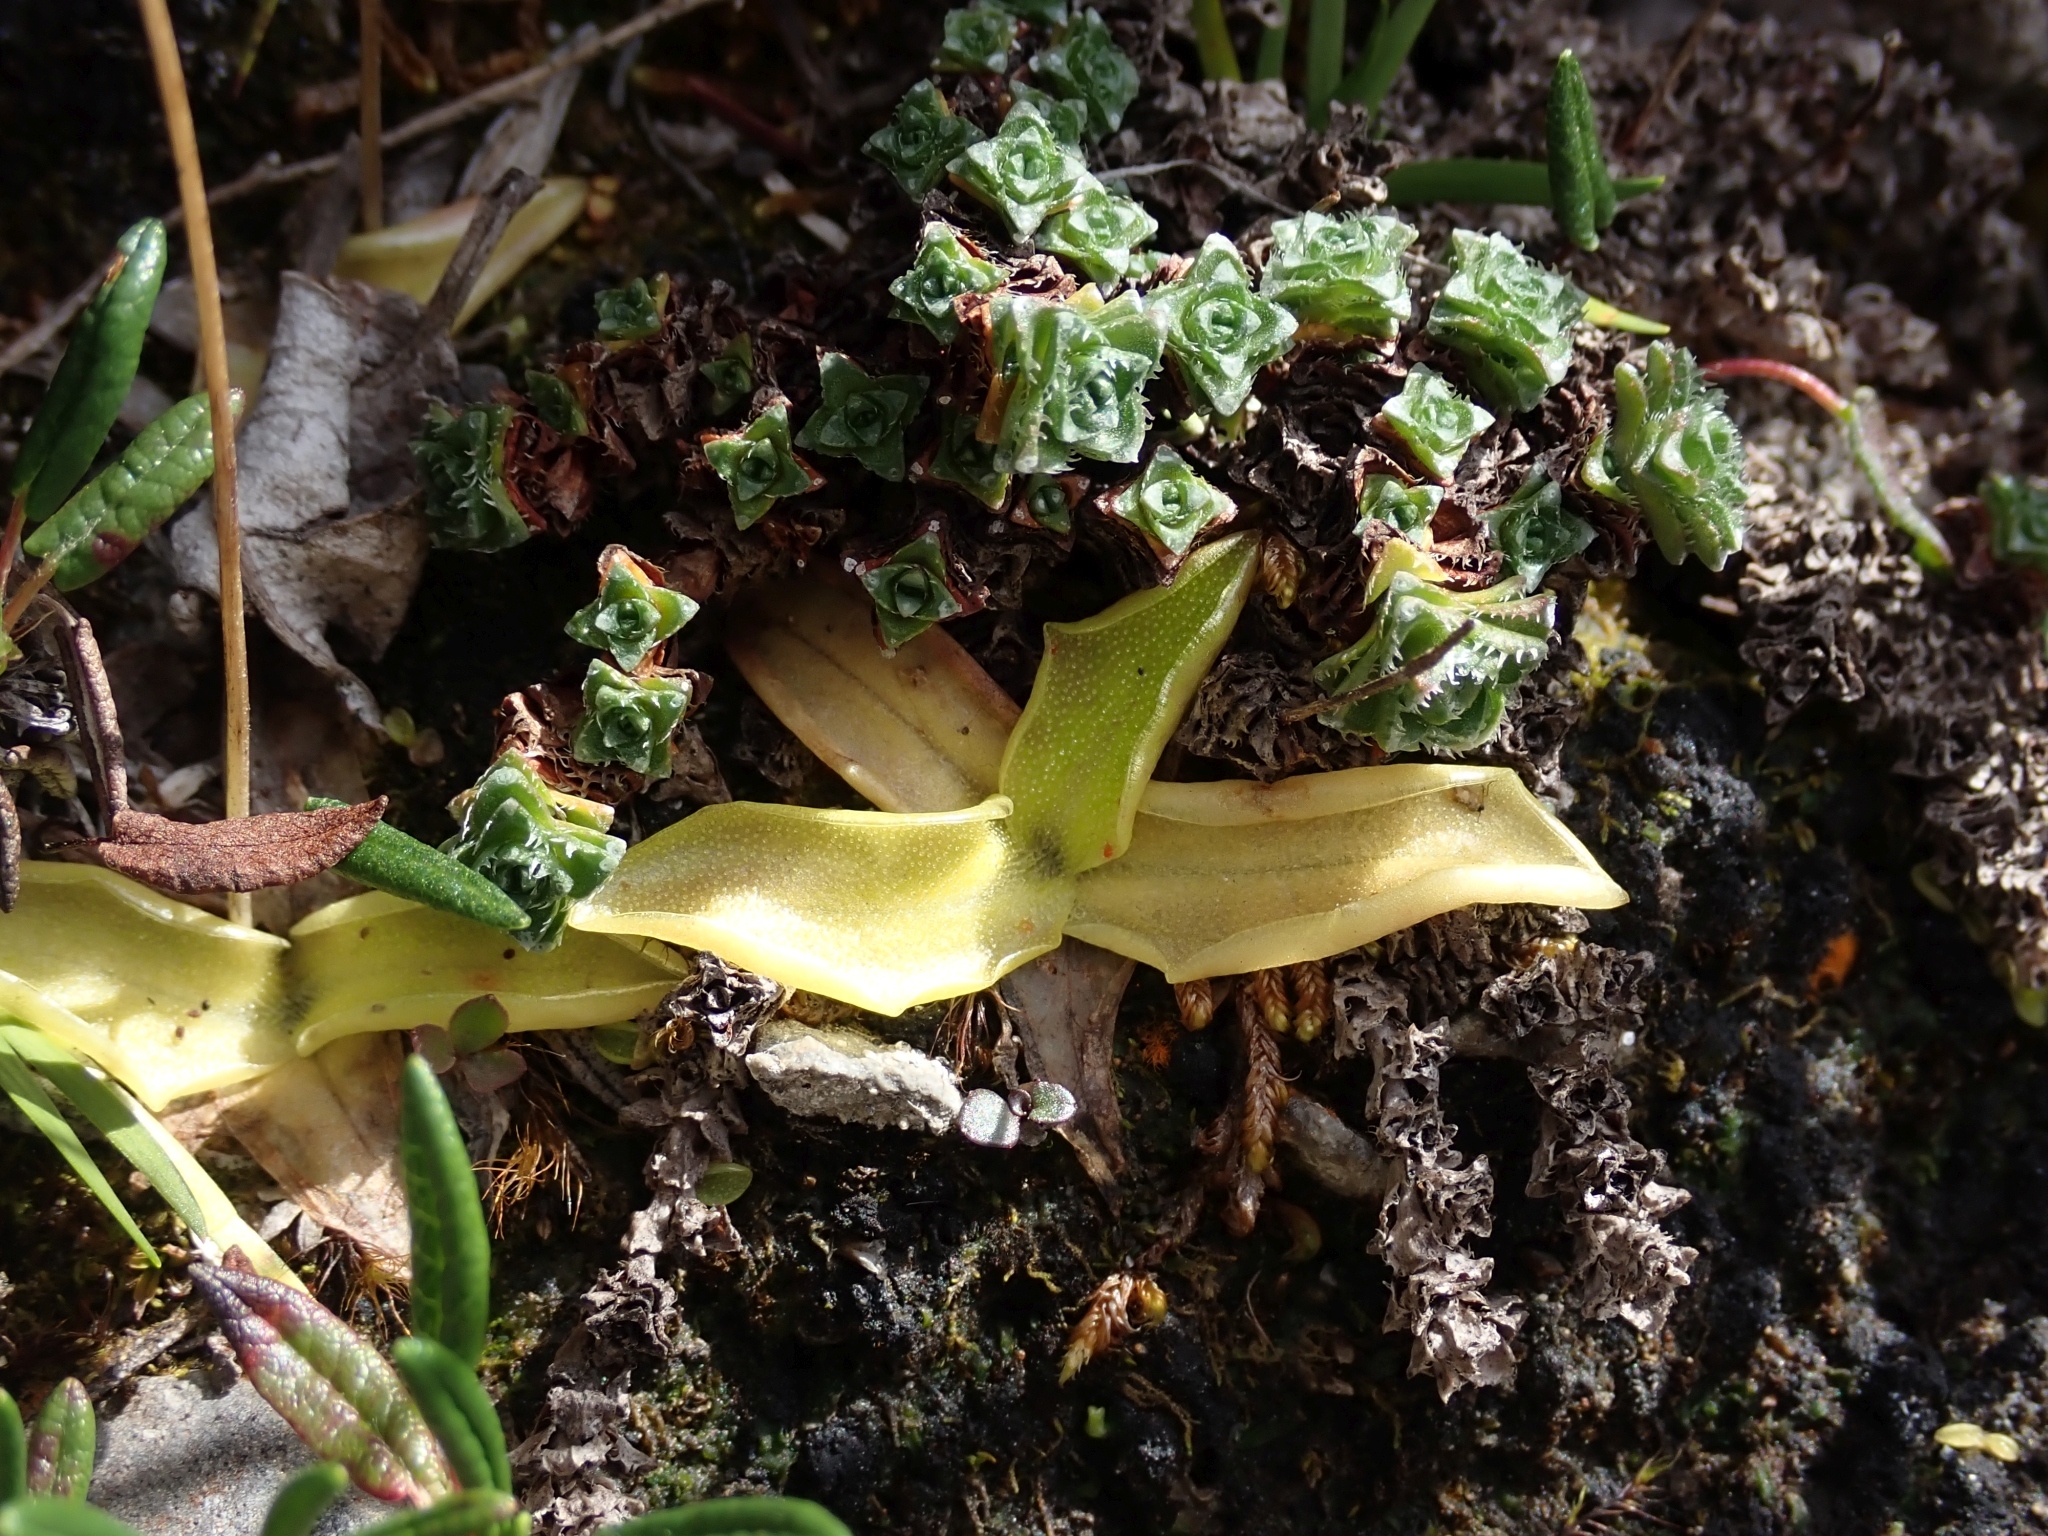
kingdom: Plantae
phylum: Tracheophyta
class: Magnoliopsida
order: Lamiales
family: Lentibulariaceae
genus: Pinguicula
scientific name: Pinguicula vulgaris
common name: Common butterwort
